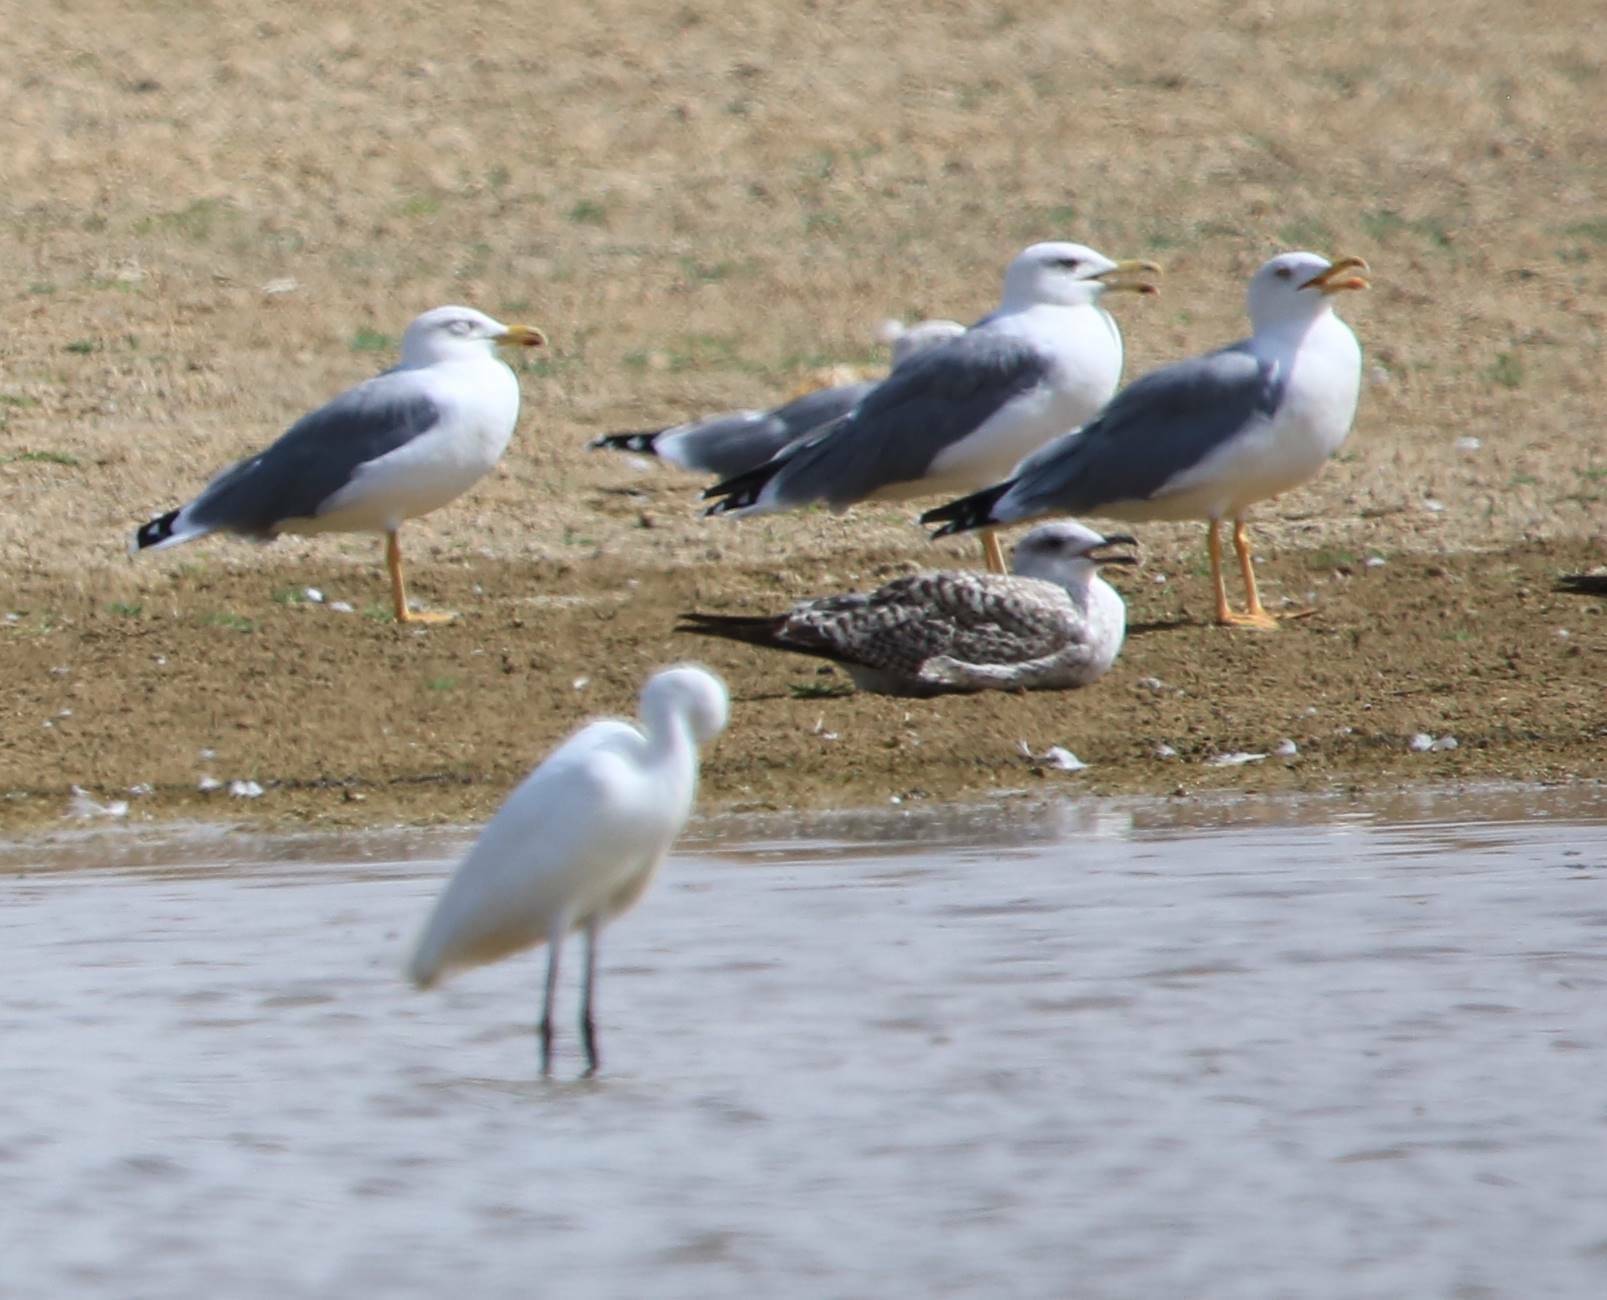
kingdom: Animalia
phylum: Chordata
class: Aves
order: Charadriiformes
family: Laridae
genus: Larus
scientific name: Larus michahellis
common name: Yellow-legged gull
